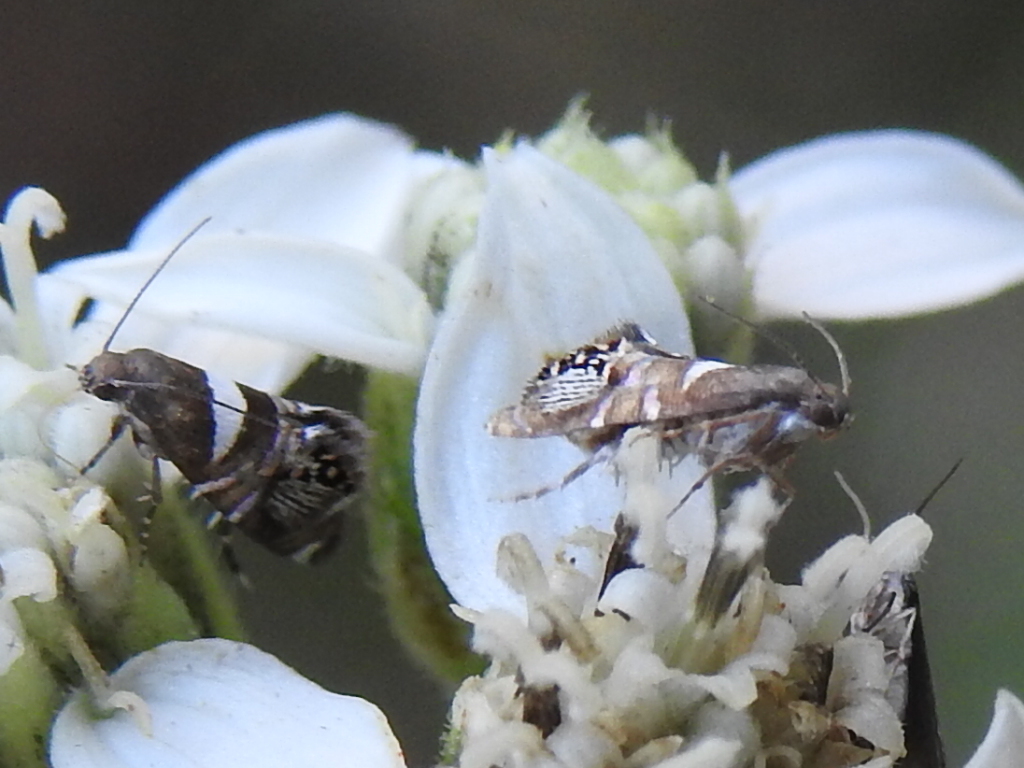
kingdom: Animalia
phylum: Arthropoda
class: Insecta
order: Lepidoptera
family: Glyphipterigidae
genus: Glyphipterix
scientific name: Glyphipterix circumscriptella
